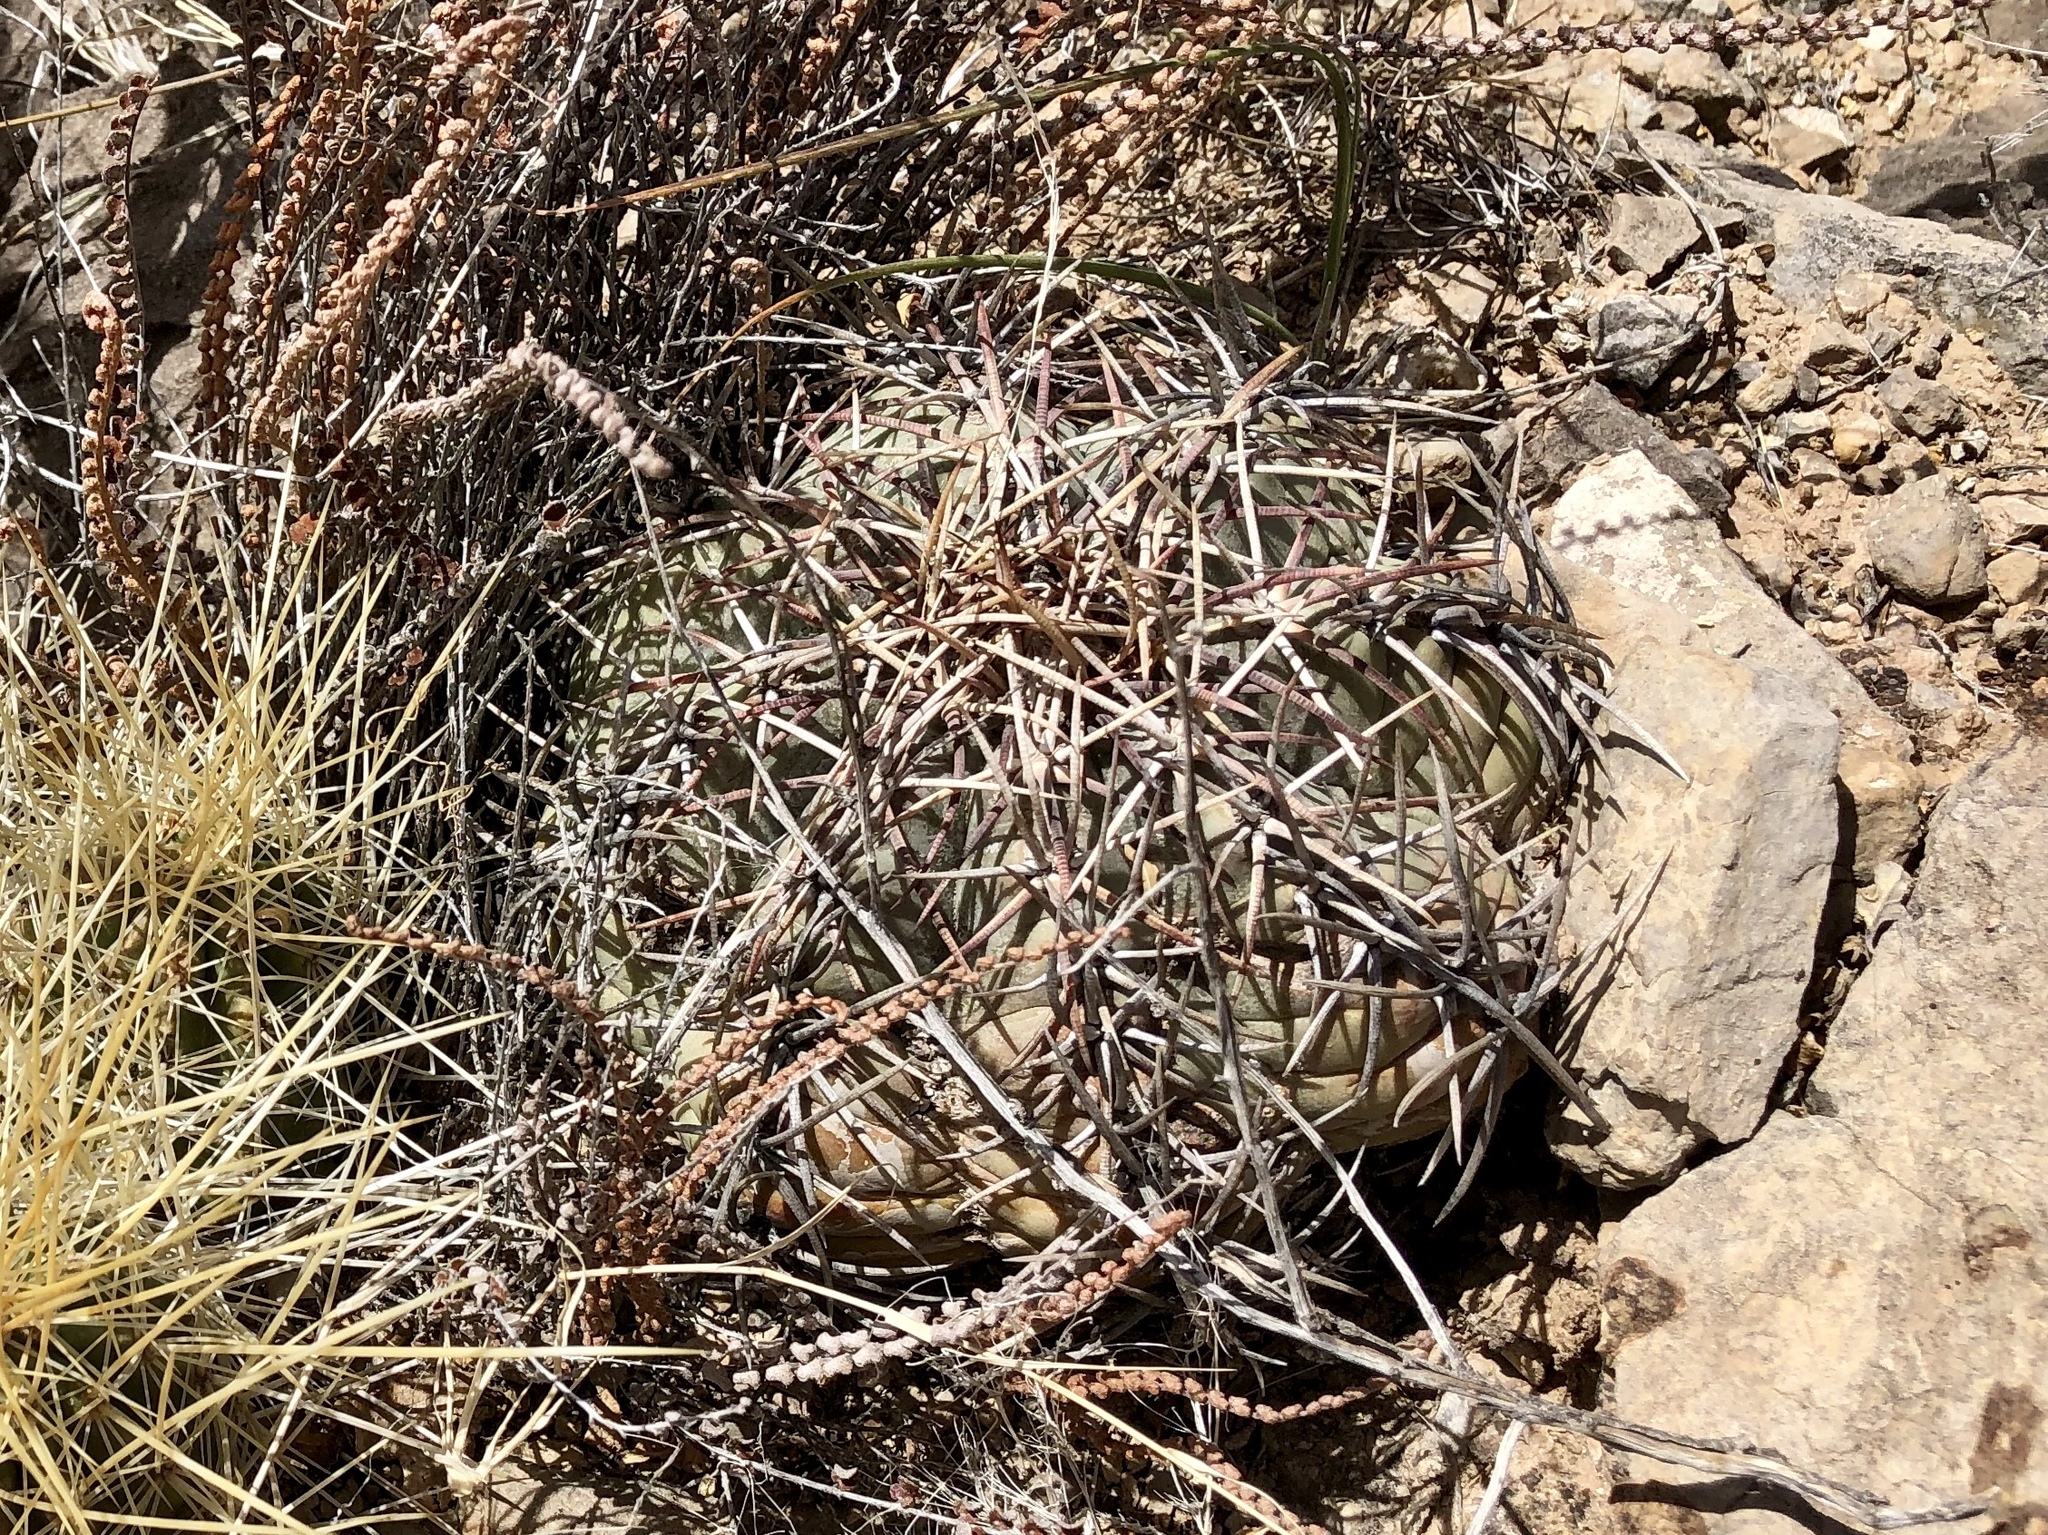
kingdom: Plantae
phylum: Tracheophyta
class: Magnoliopsida
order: Caryophyllales
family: Cactaceae
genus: Echinocactus
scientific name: Echinocactus horizonthalonius
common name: Devilshead
